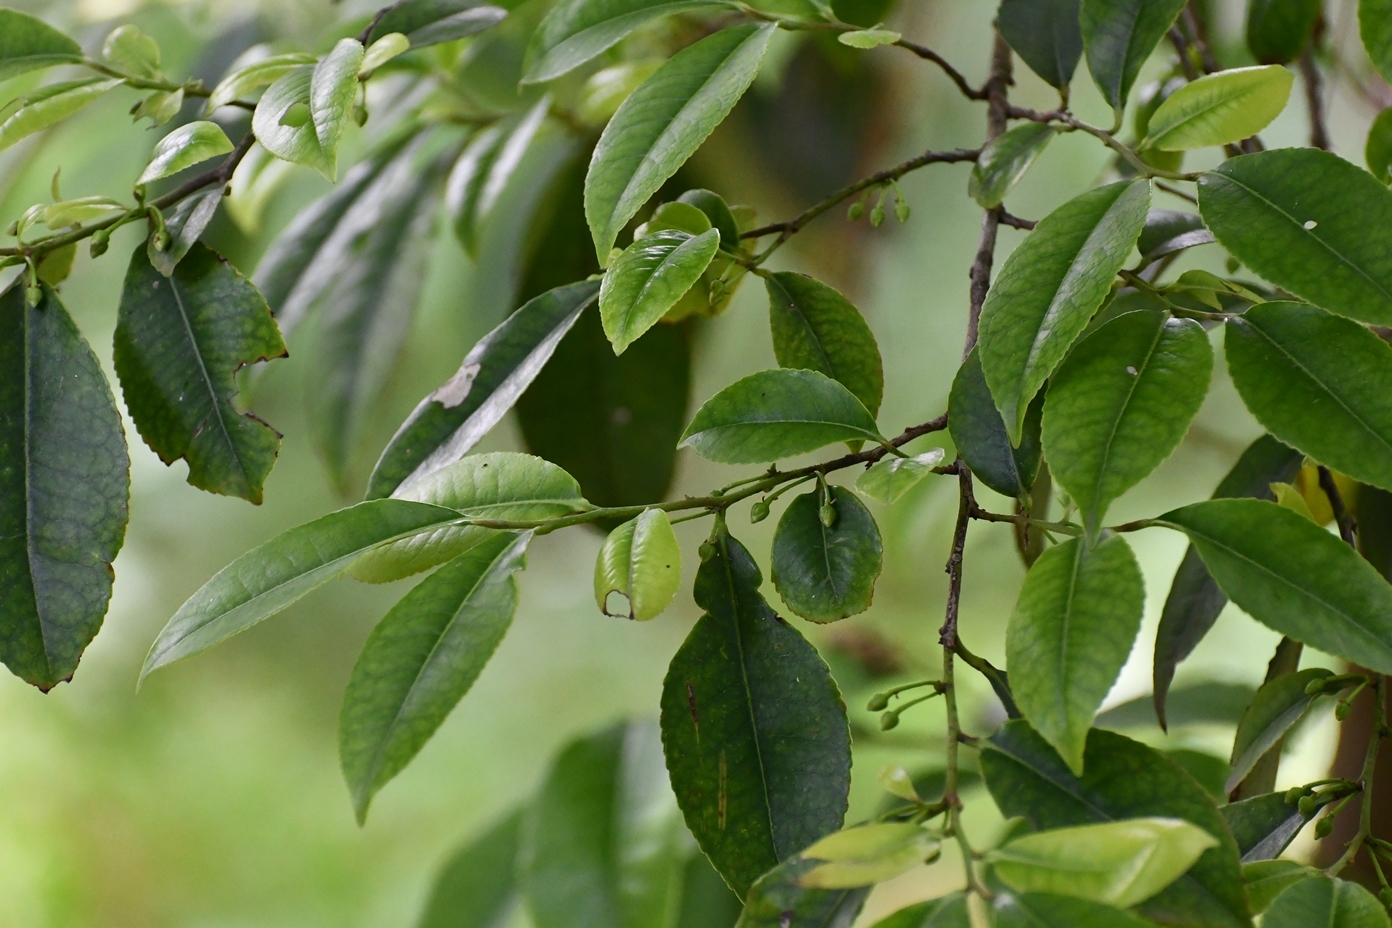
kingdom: Plantae
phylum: Tracheophyta
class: Magnoliopsida
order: Ericales
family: Pentaphylacaceae
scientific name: Pentaphylacaceae
